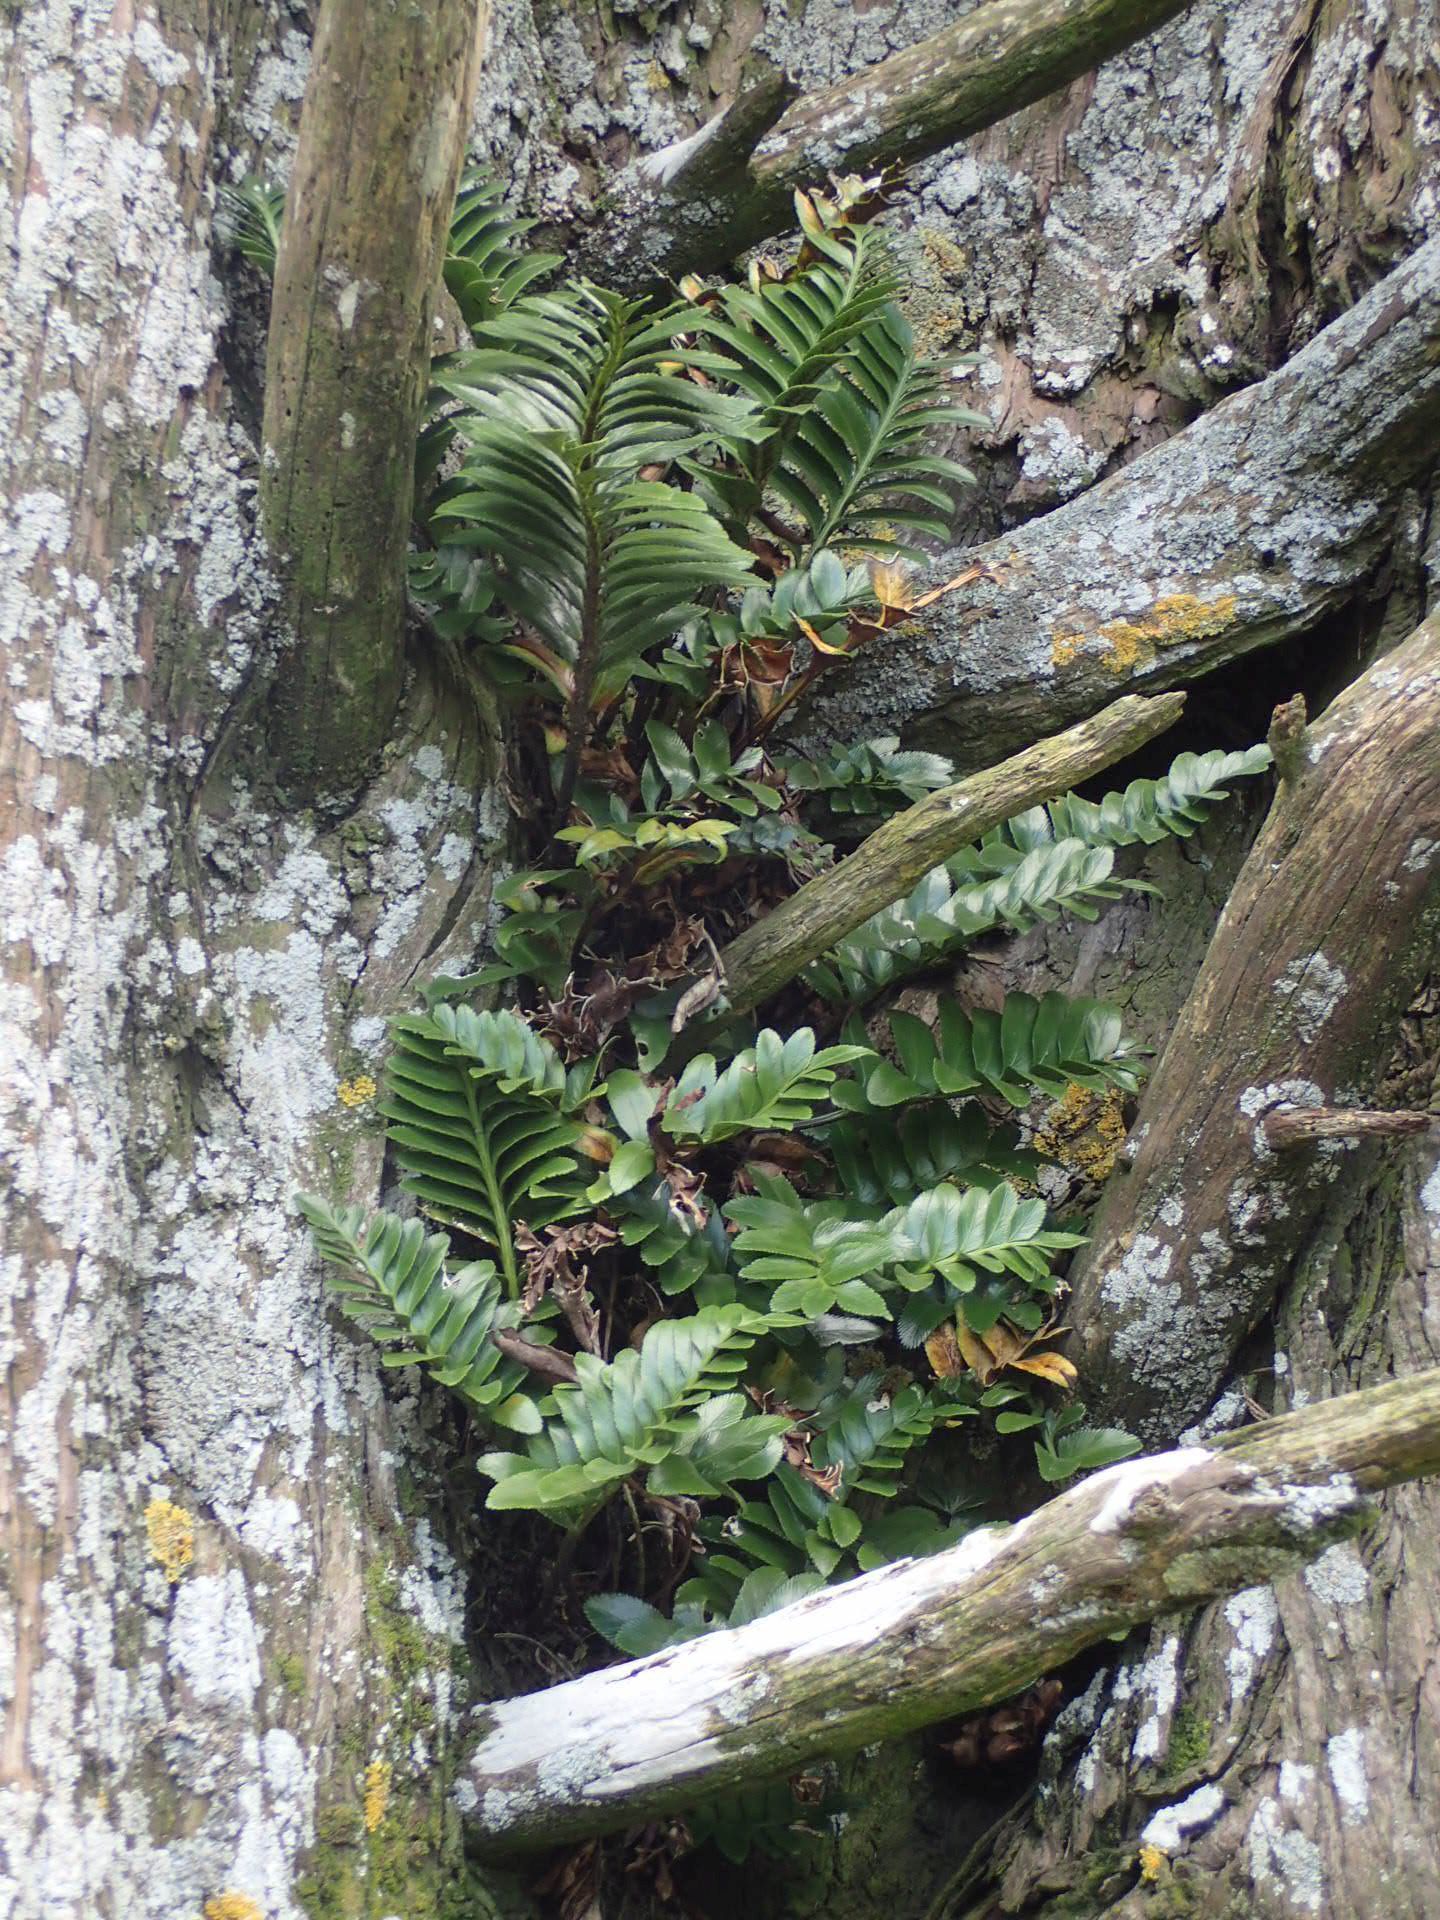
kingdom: Plantae
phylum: Tracheophyta
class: Polypodiopsida
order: Polypodiales
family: Aspleniaceae
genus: Asplenium
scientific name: Asplenium obtusatum
